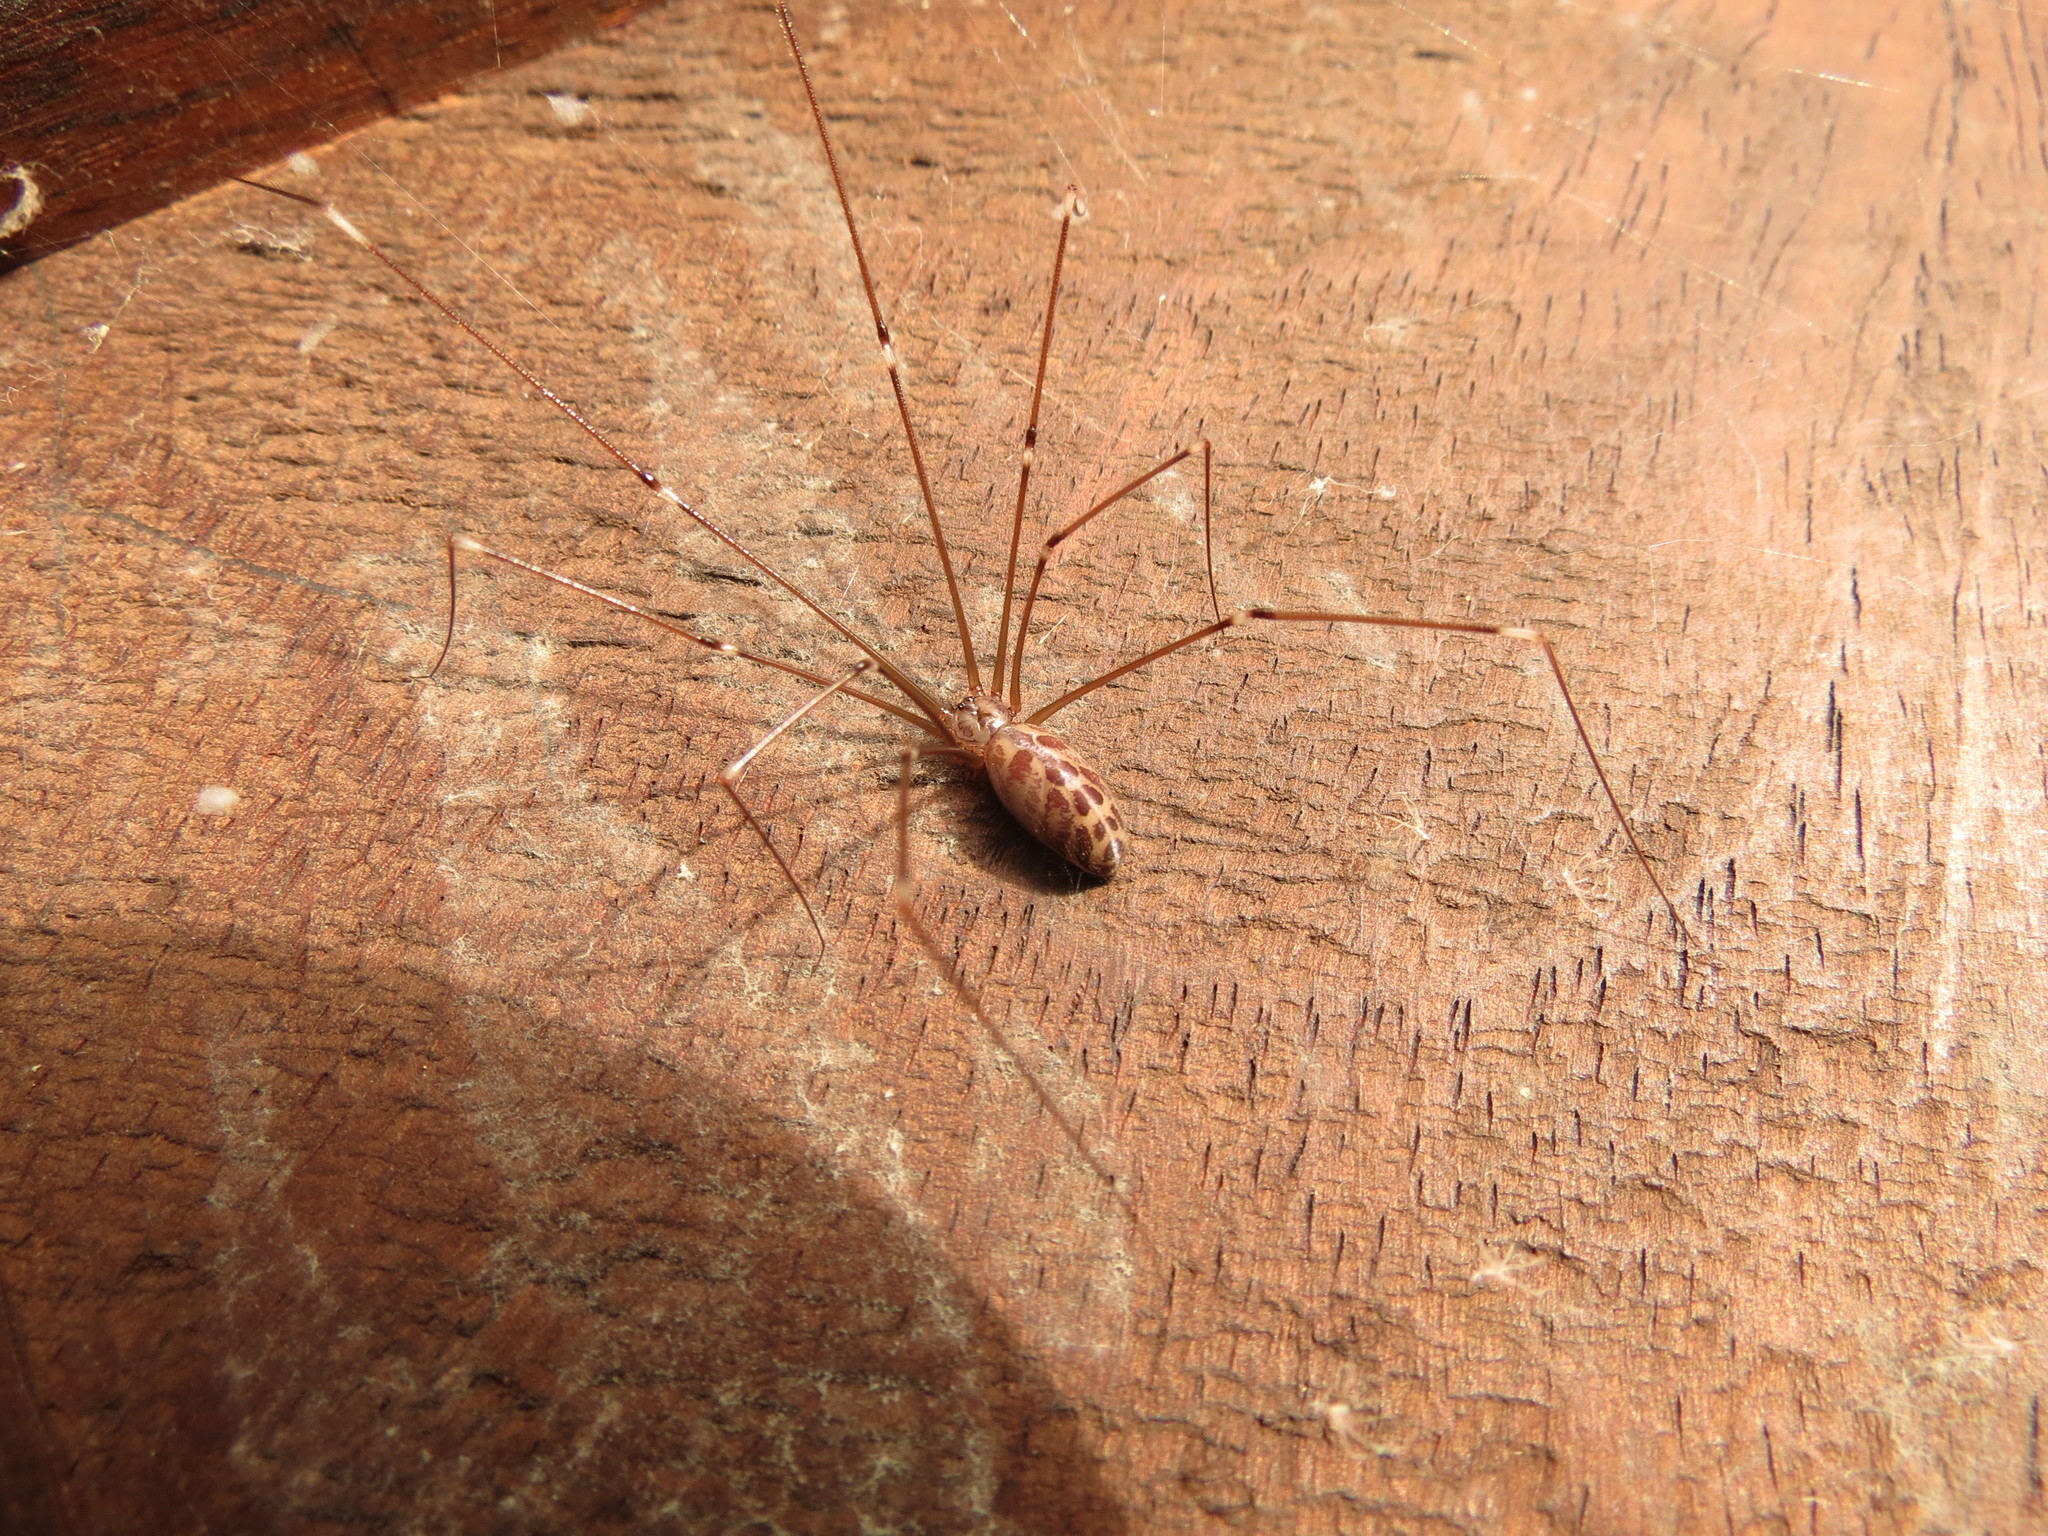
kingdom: Animalia
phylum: Arthropoda
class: Arachnida
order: Araneae
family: Pholcidae
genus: Smeringopus
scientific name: Smeringopus natalensis
